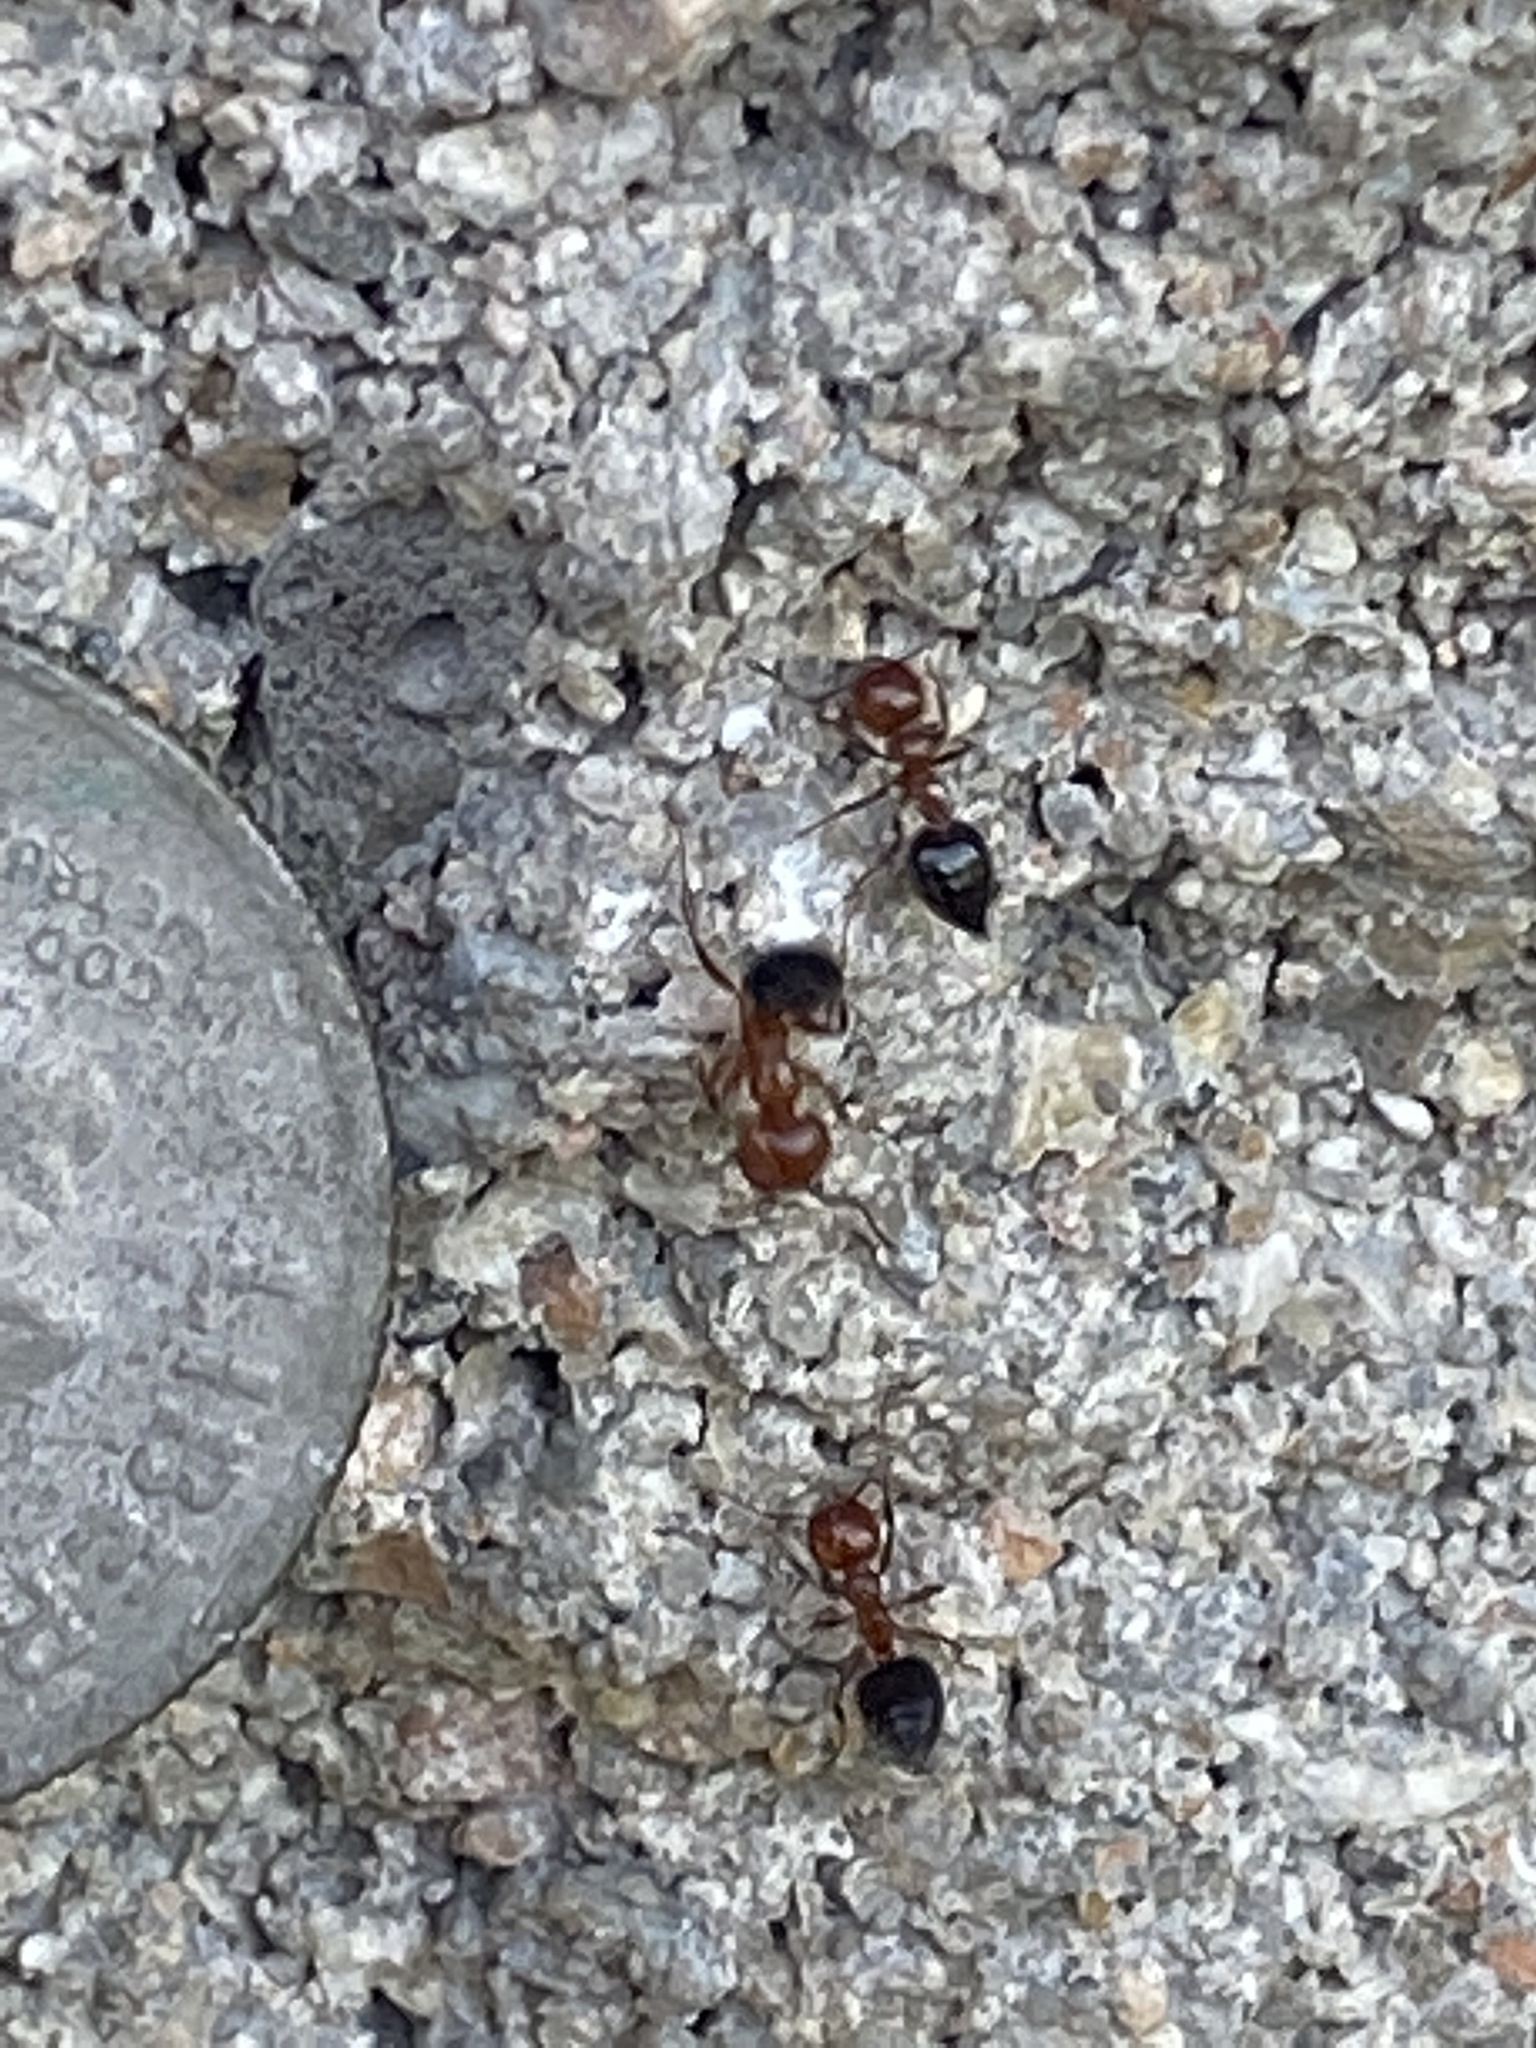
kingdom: Animalia
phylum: Arthropoda
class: Insecta
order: Hymenoptera
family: Formicidae
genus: Crematogaster
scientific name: Crematogaster laeviuscula
